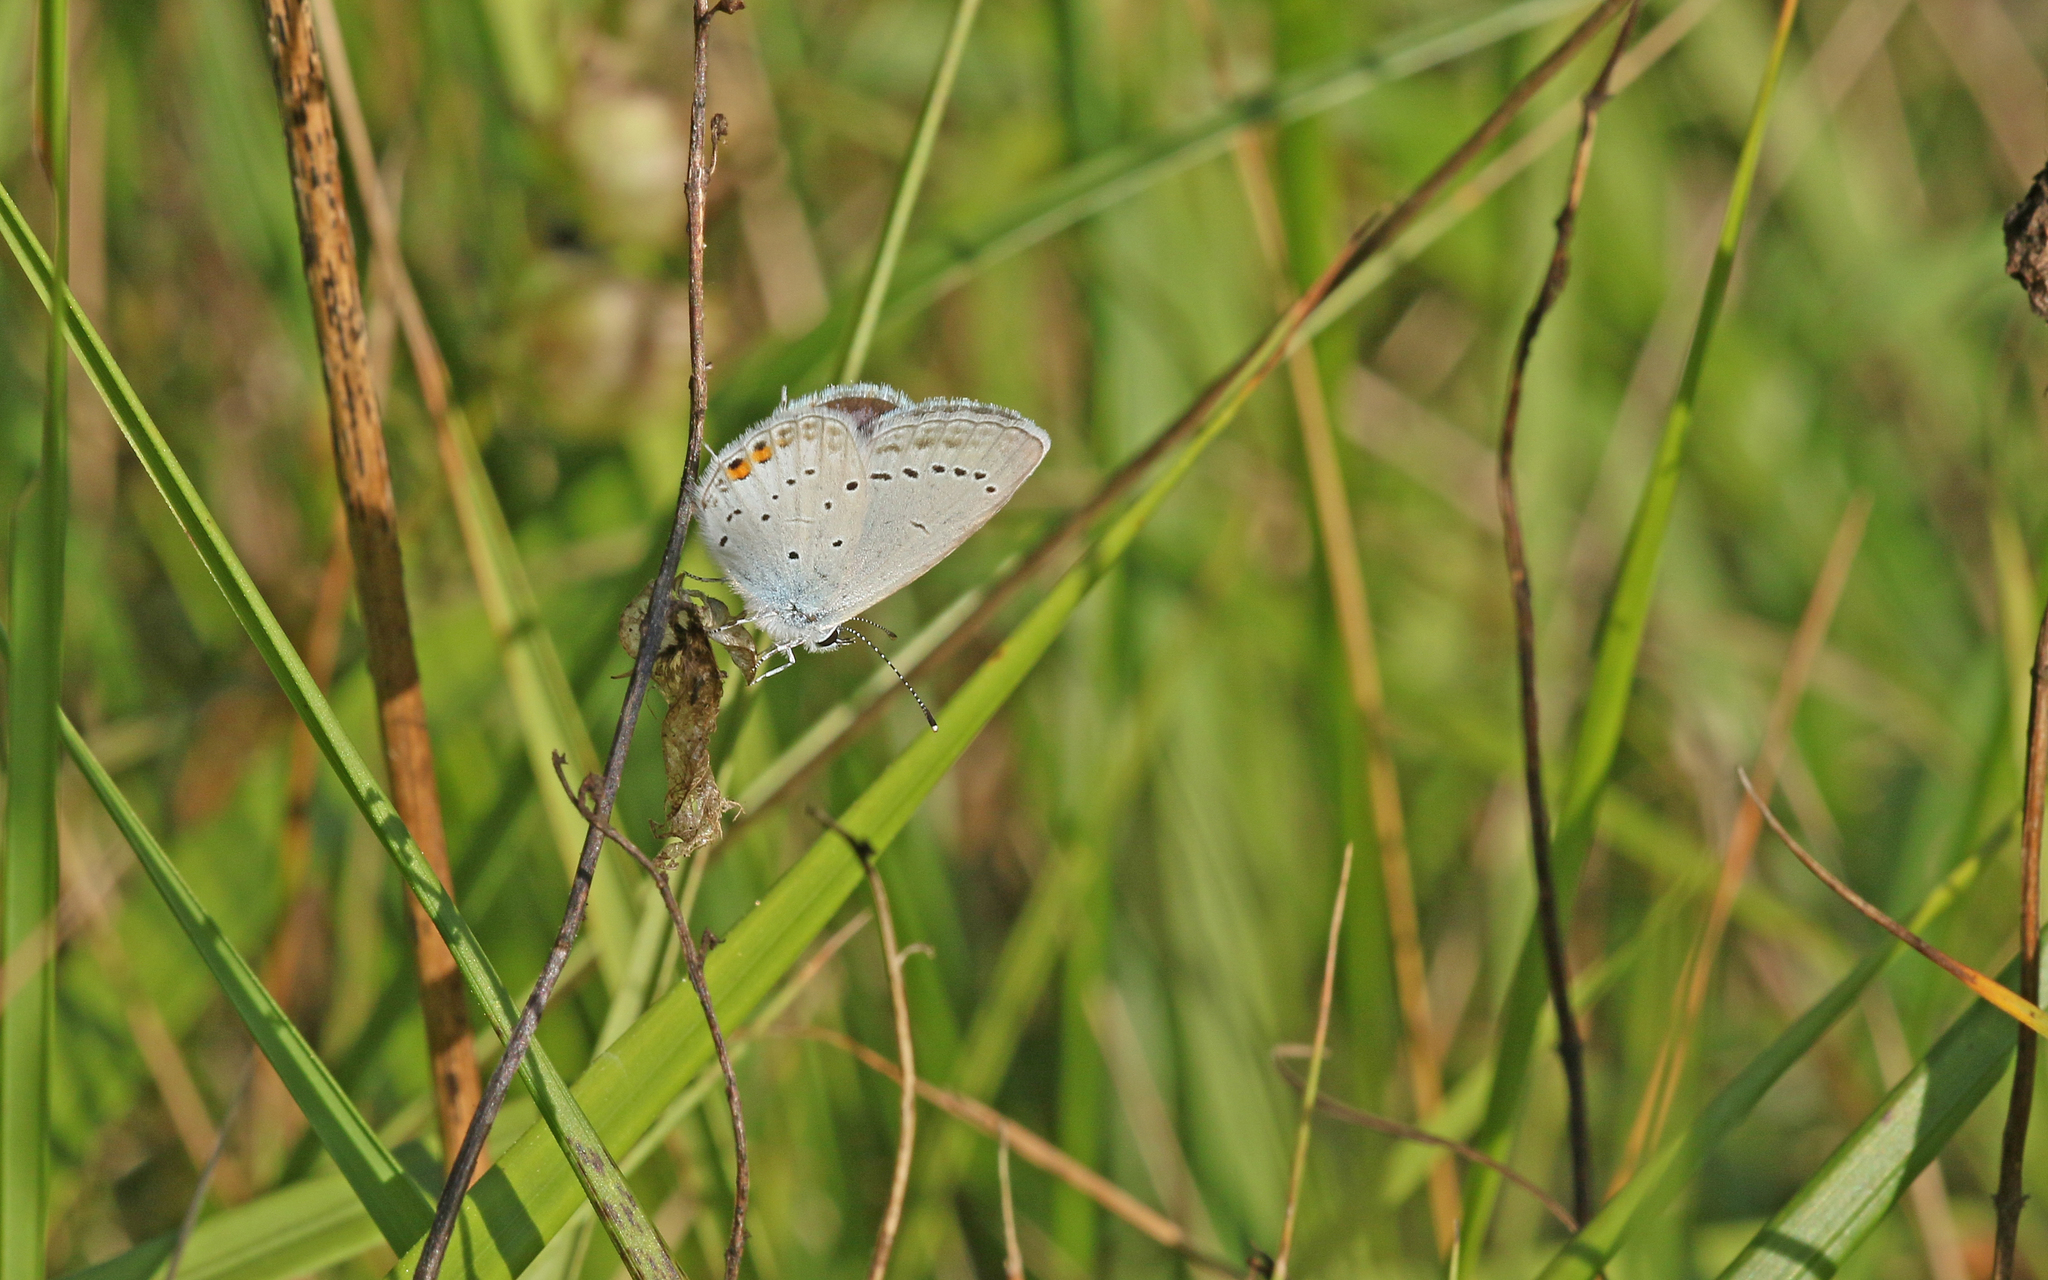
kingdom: Animalia
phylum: Arthropoda
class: Insecta
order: Lepidoptera
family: Lycaenidae
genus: Elkalyce
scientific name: Elkalyce argiades
